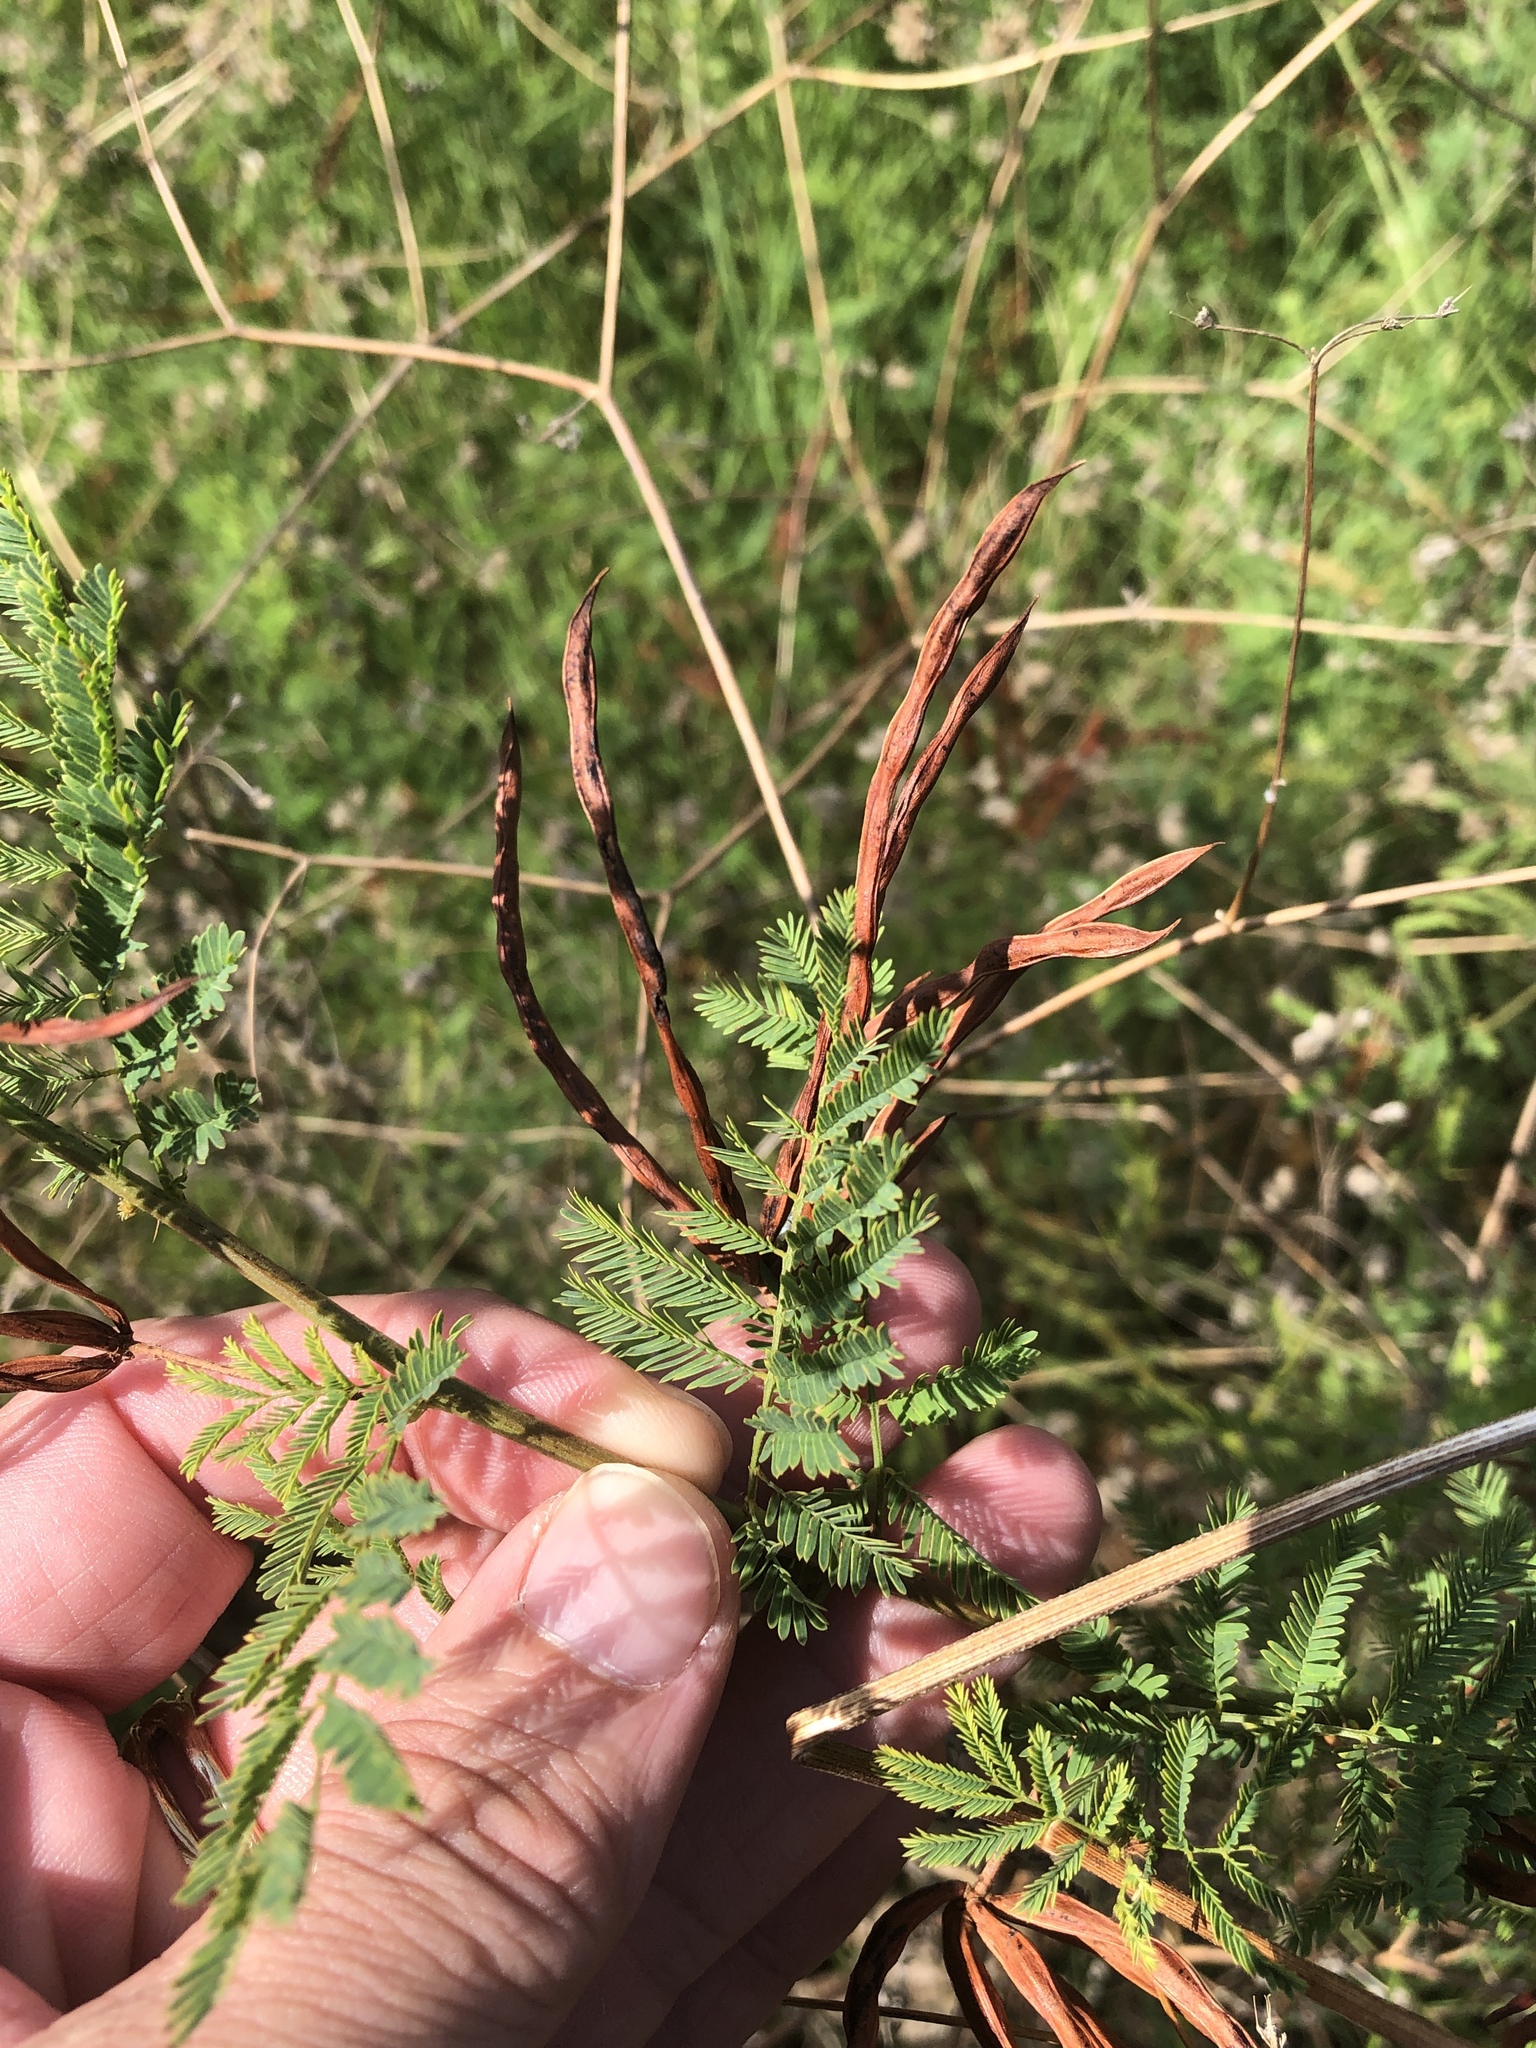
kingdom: Plantae
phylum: Tracheophyta
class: Magnoliopsida
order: Fabales
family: Fabaceae
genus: Desmanthus
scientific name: Desmanthus leptolobus
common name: Prairie-mimosa
